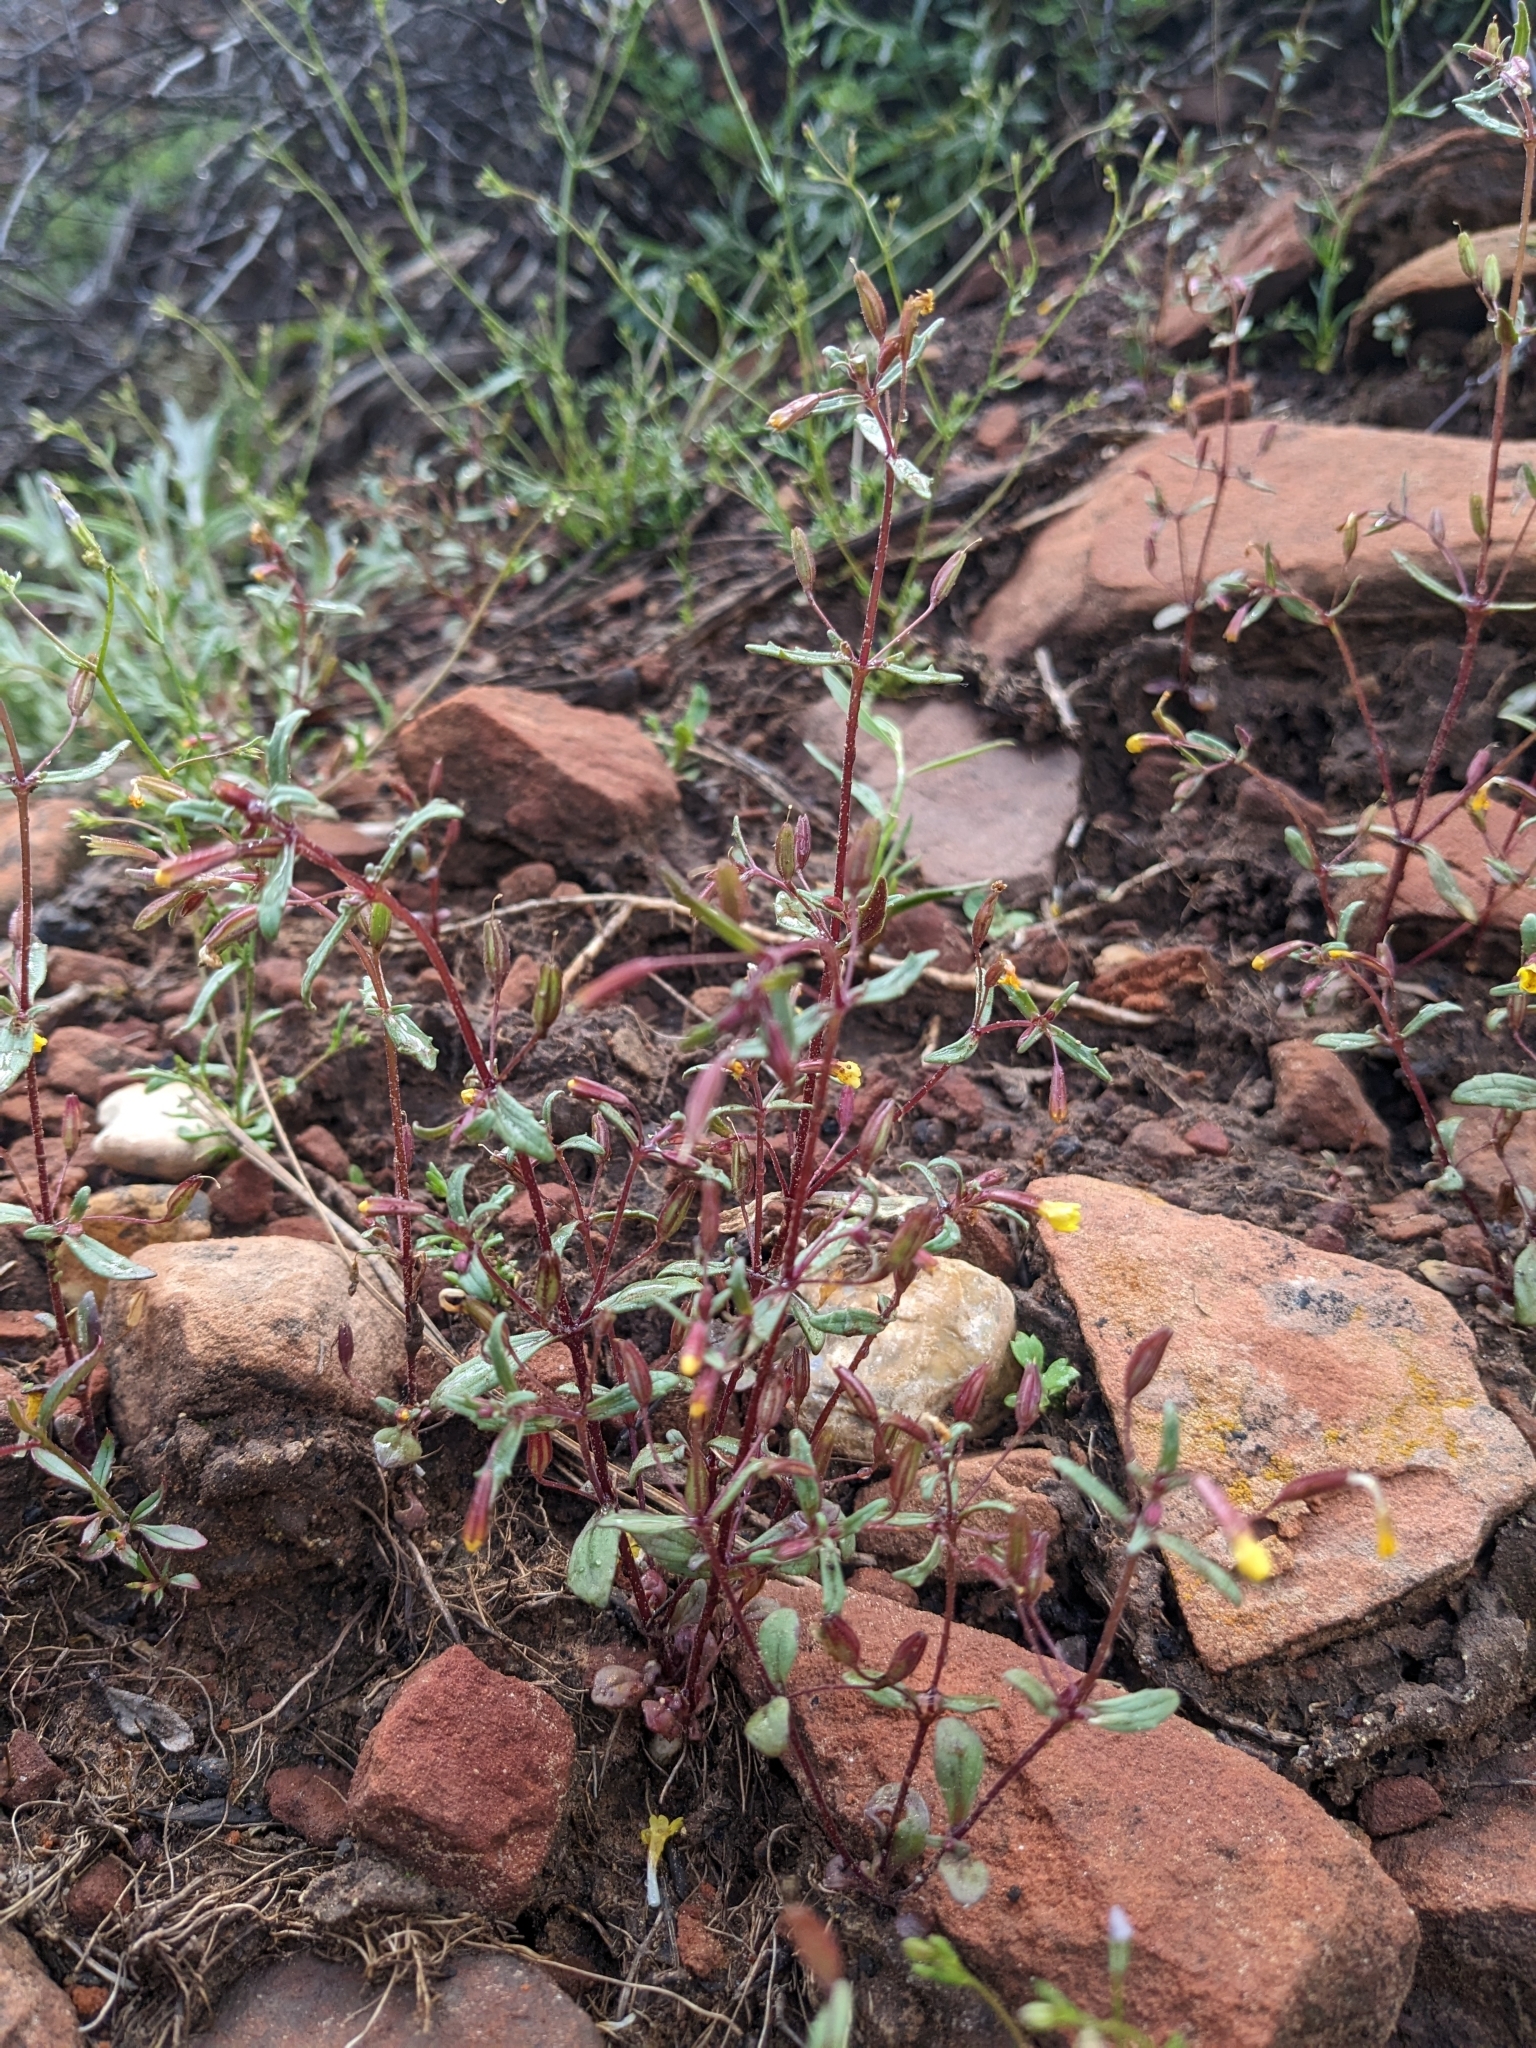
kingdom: Plantae
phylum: Tracheophyta
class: Magnoliopsida
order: Lamiales
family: Phrymaceae
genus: Erythranthe
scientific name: Erythranthe rubella
